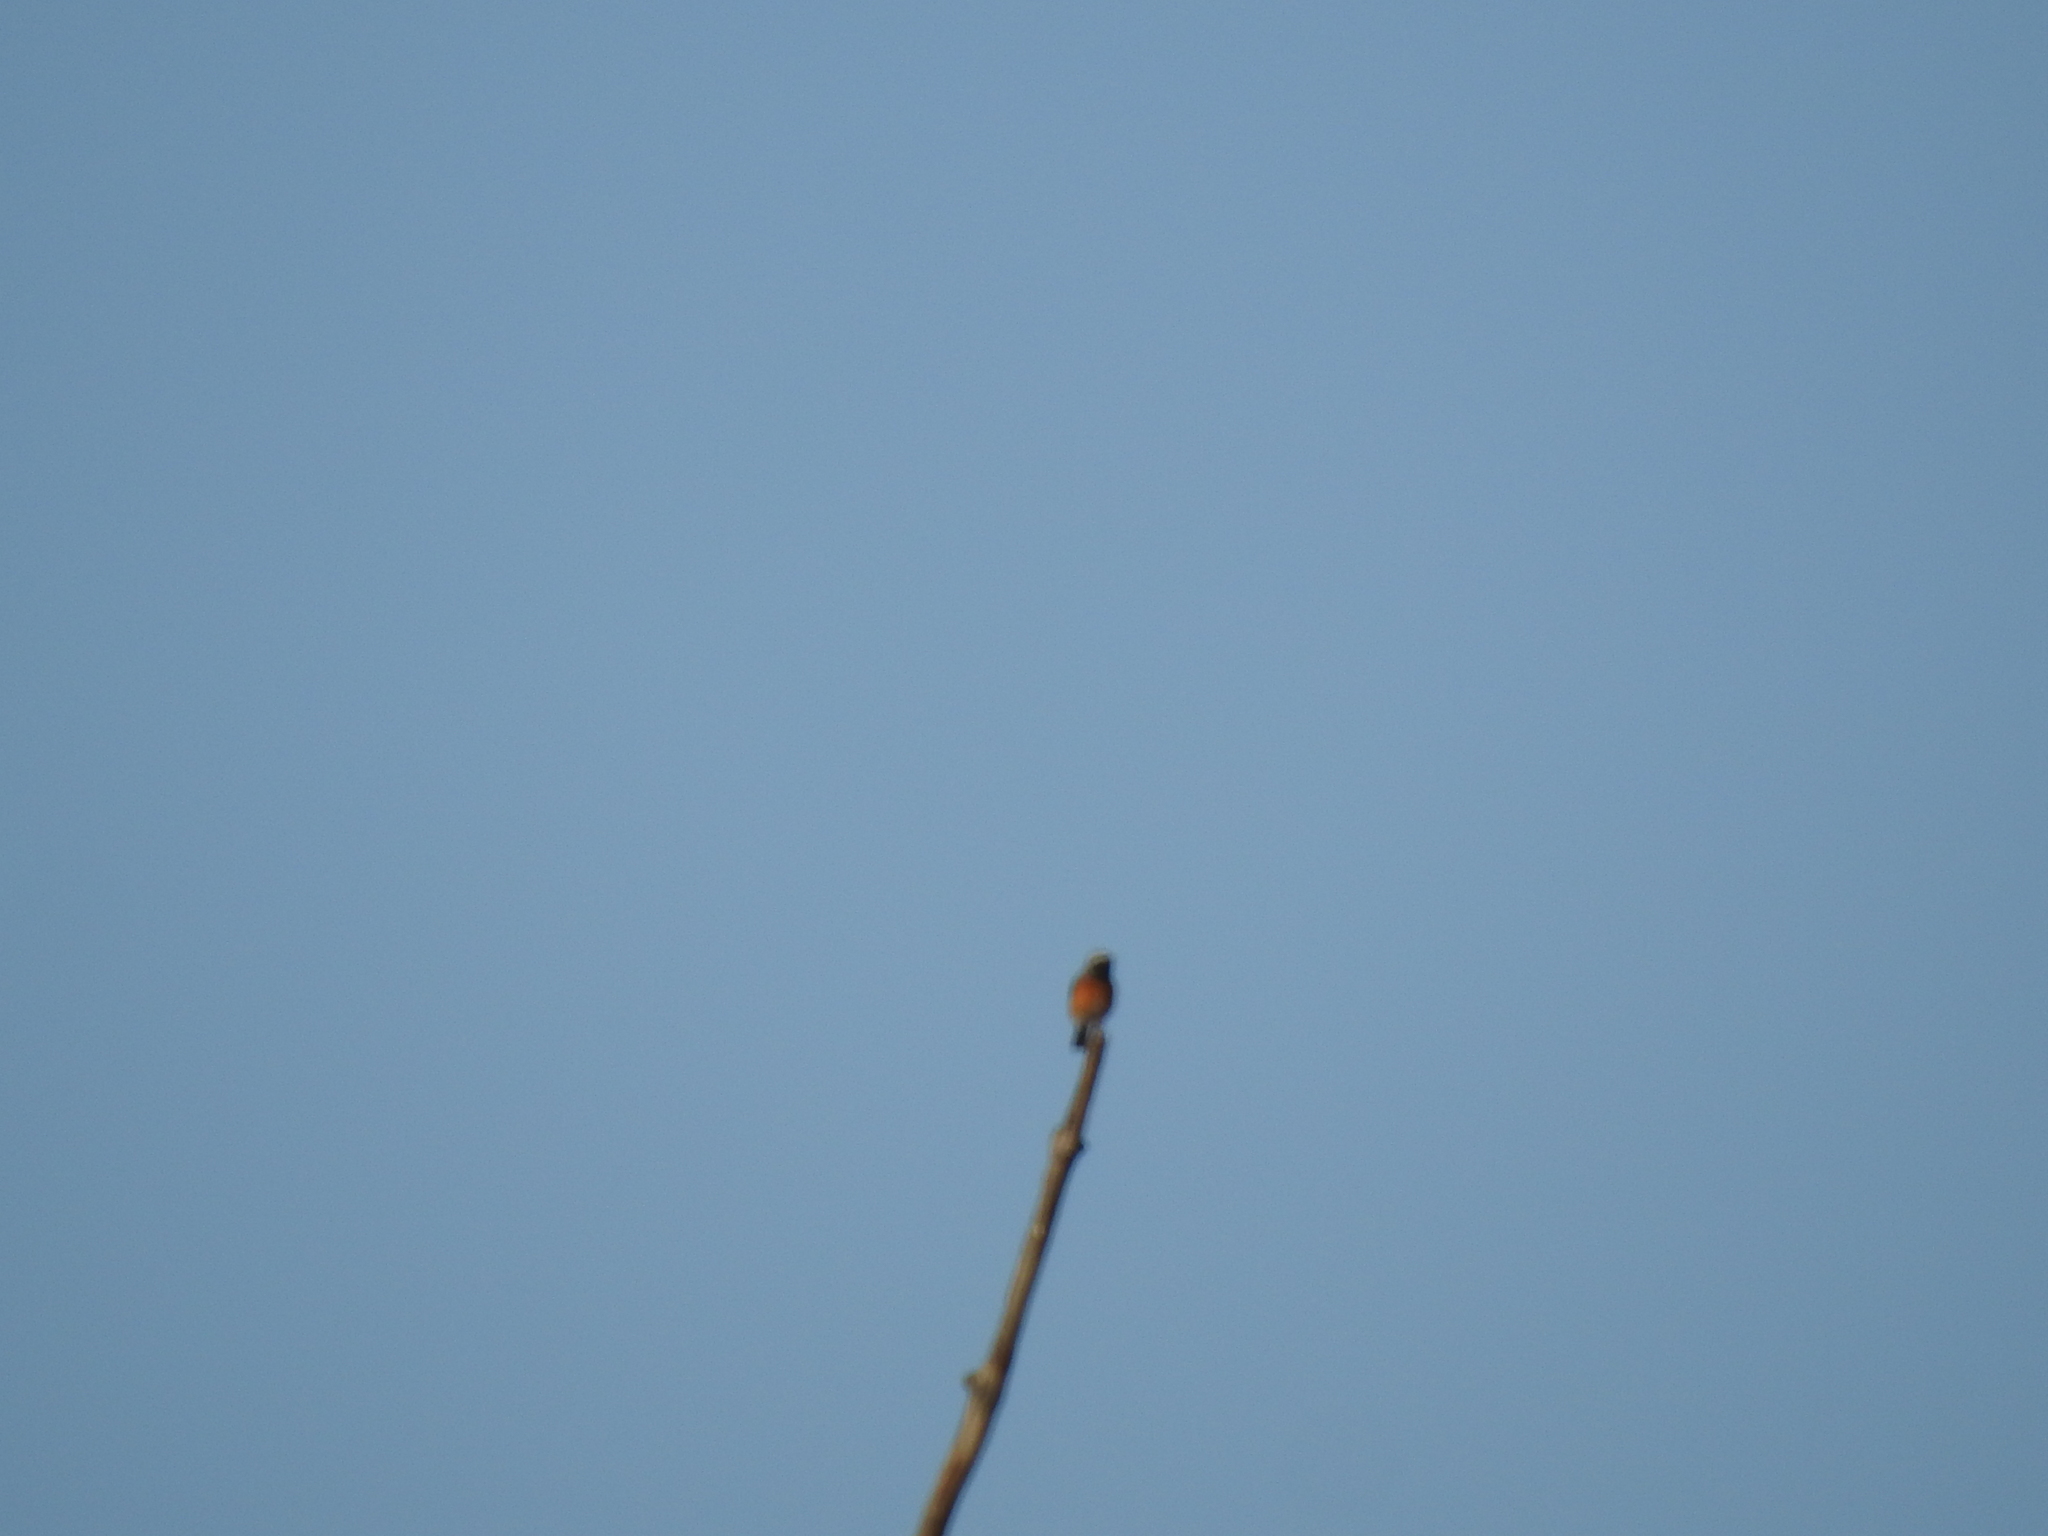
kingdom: Animalia
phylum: Chordata
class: Aves
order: Passeriformes
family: Muscicapidae
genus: Phoenicurus
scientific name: Phoenicurus phoenicurus
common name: Common redstart
